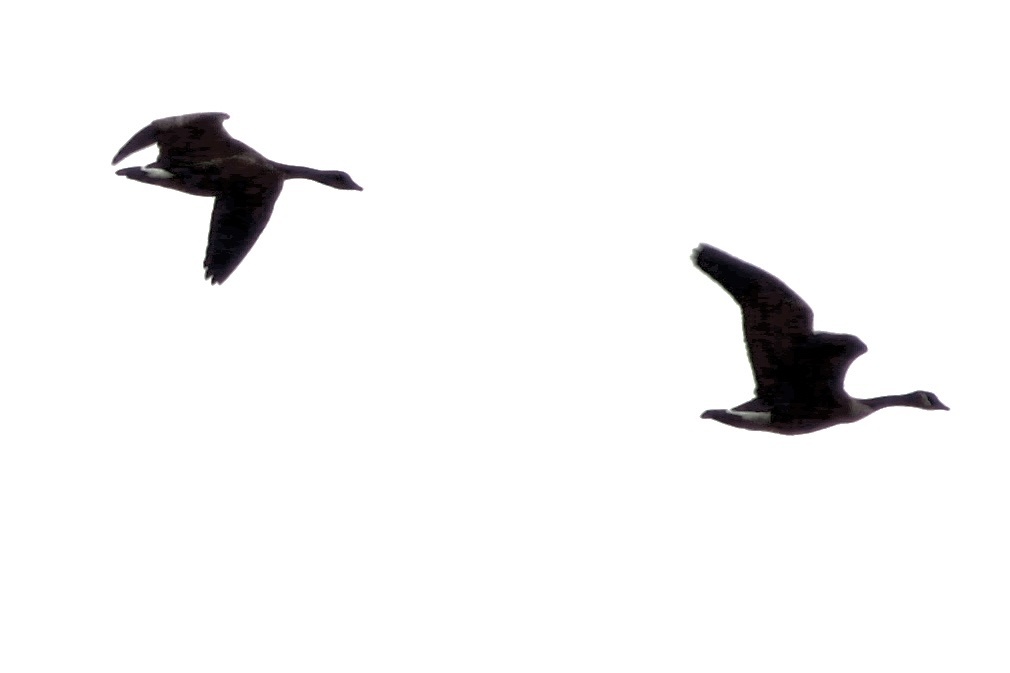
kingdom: Animalia
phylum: Chordata
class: Aves
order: Anseriformes
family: Anatidae
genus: Branta
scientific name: Branta canadensis
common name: Canada goose
